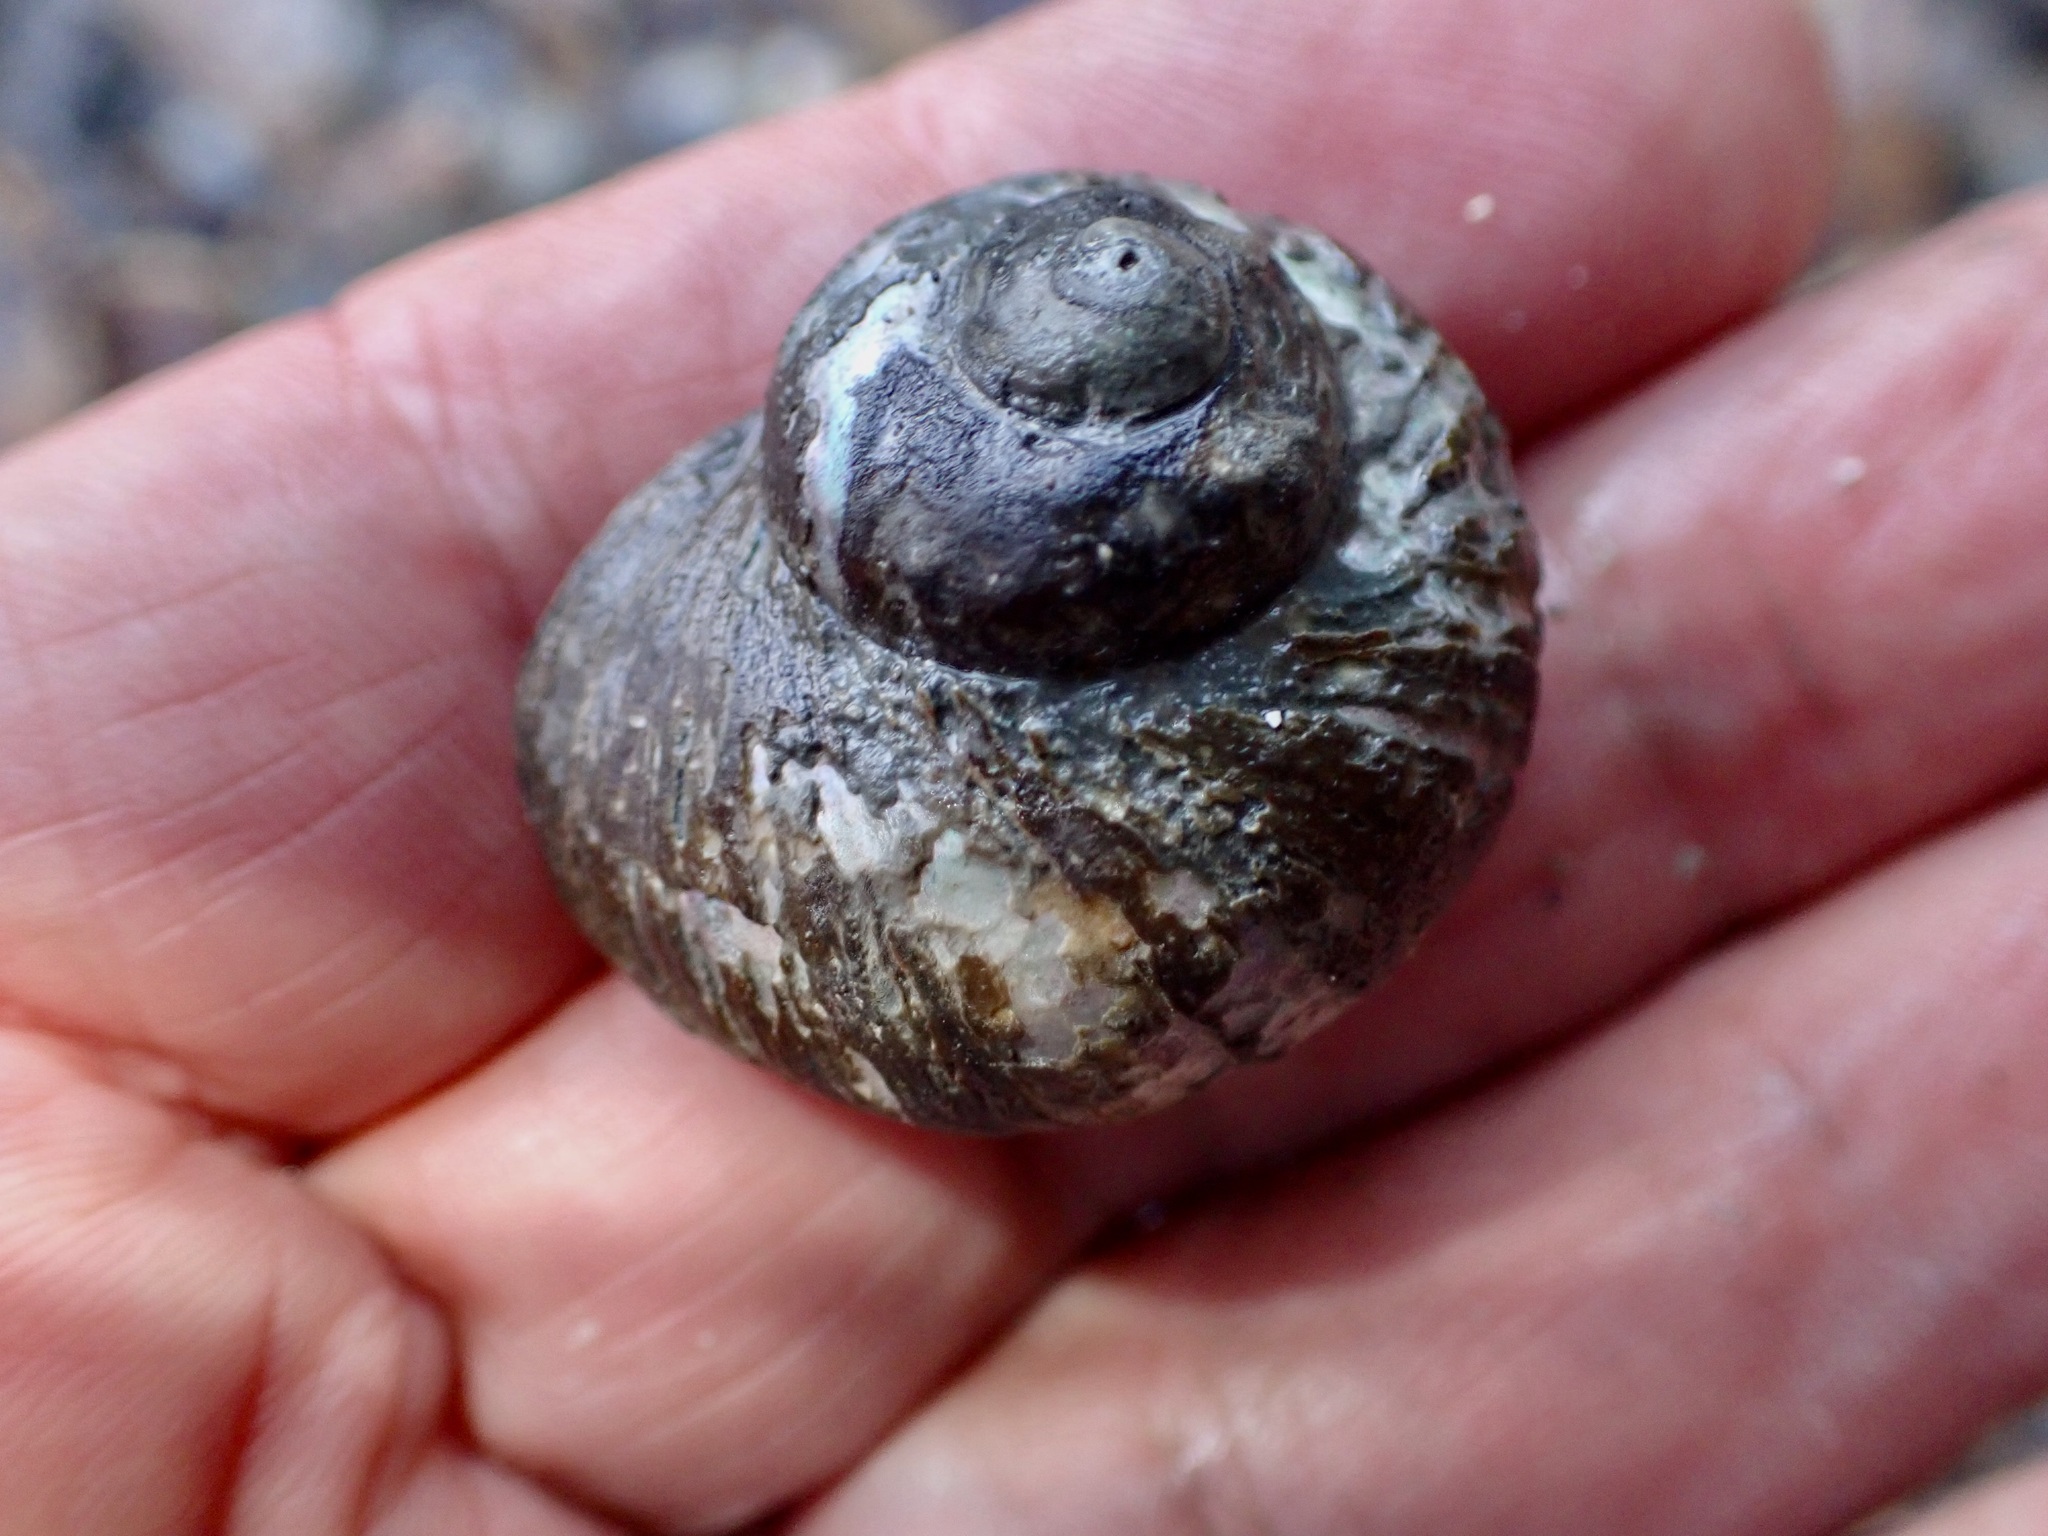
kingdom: Animalia
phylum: Mollusca
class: Gastropoda
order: Trochida
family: Turbinidae
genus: Lunella
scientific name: Lunella smaragda
